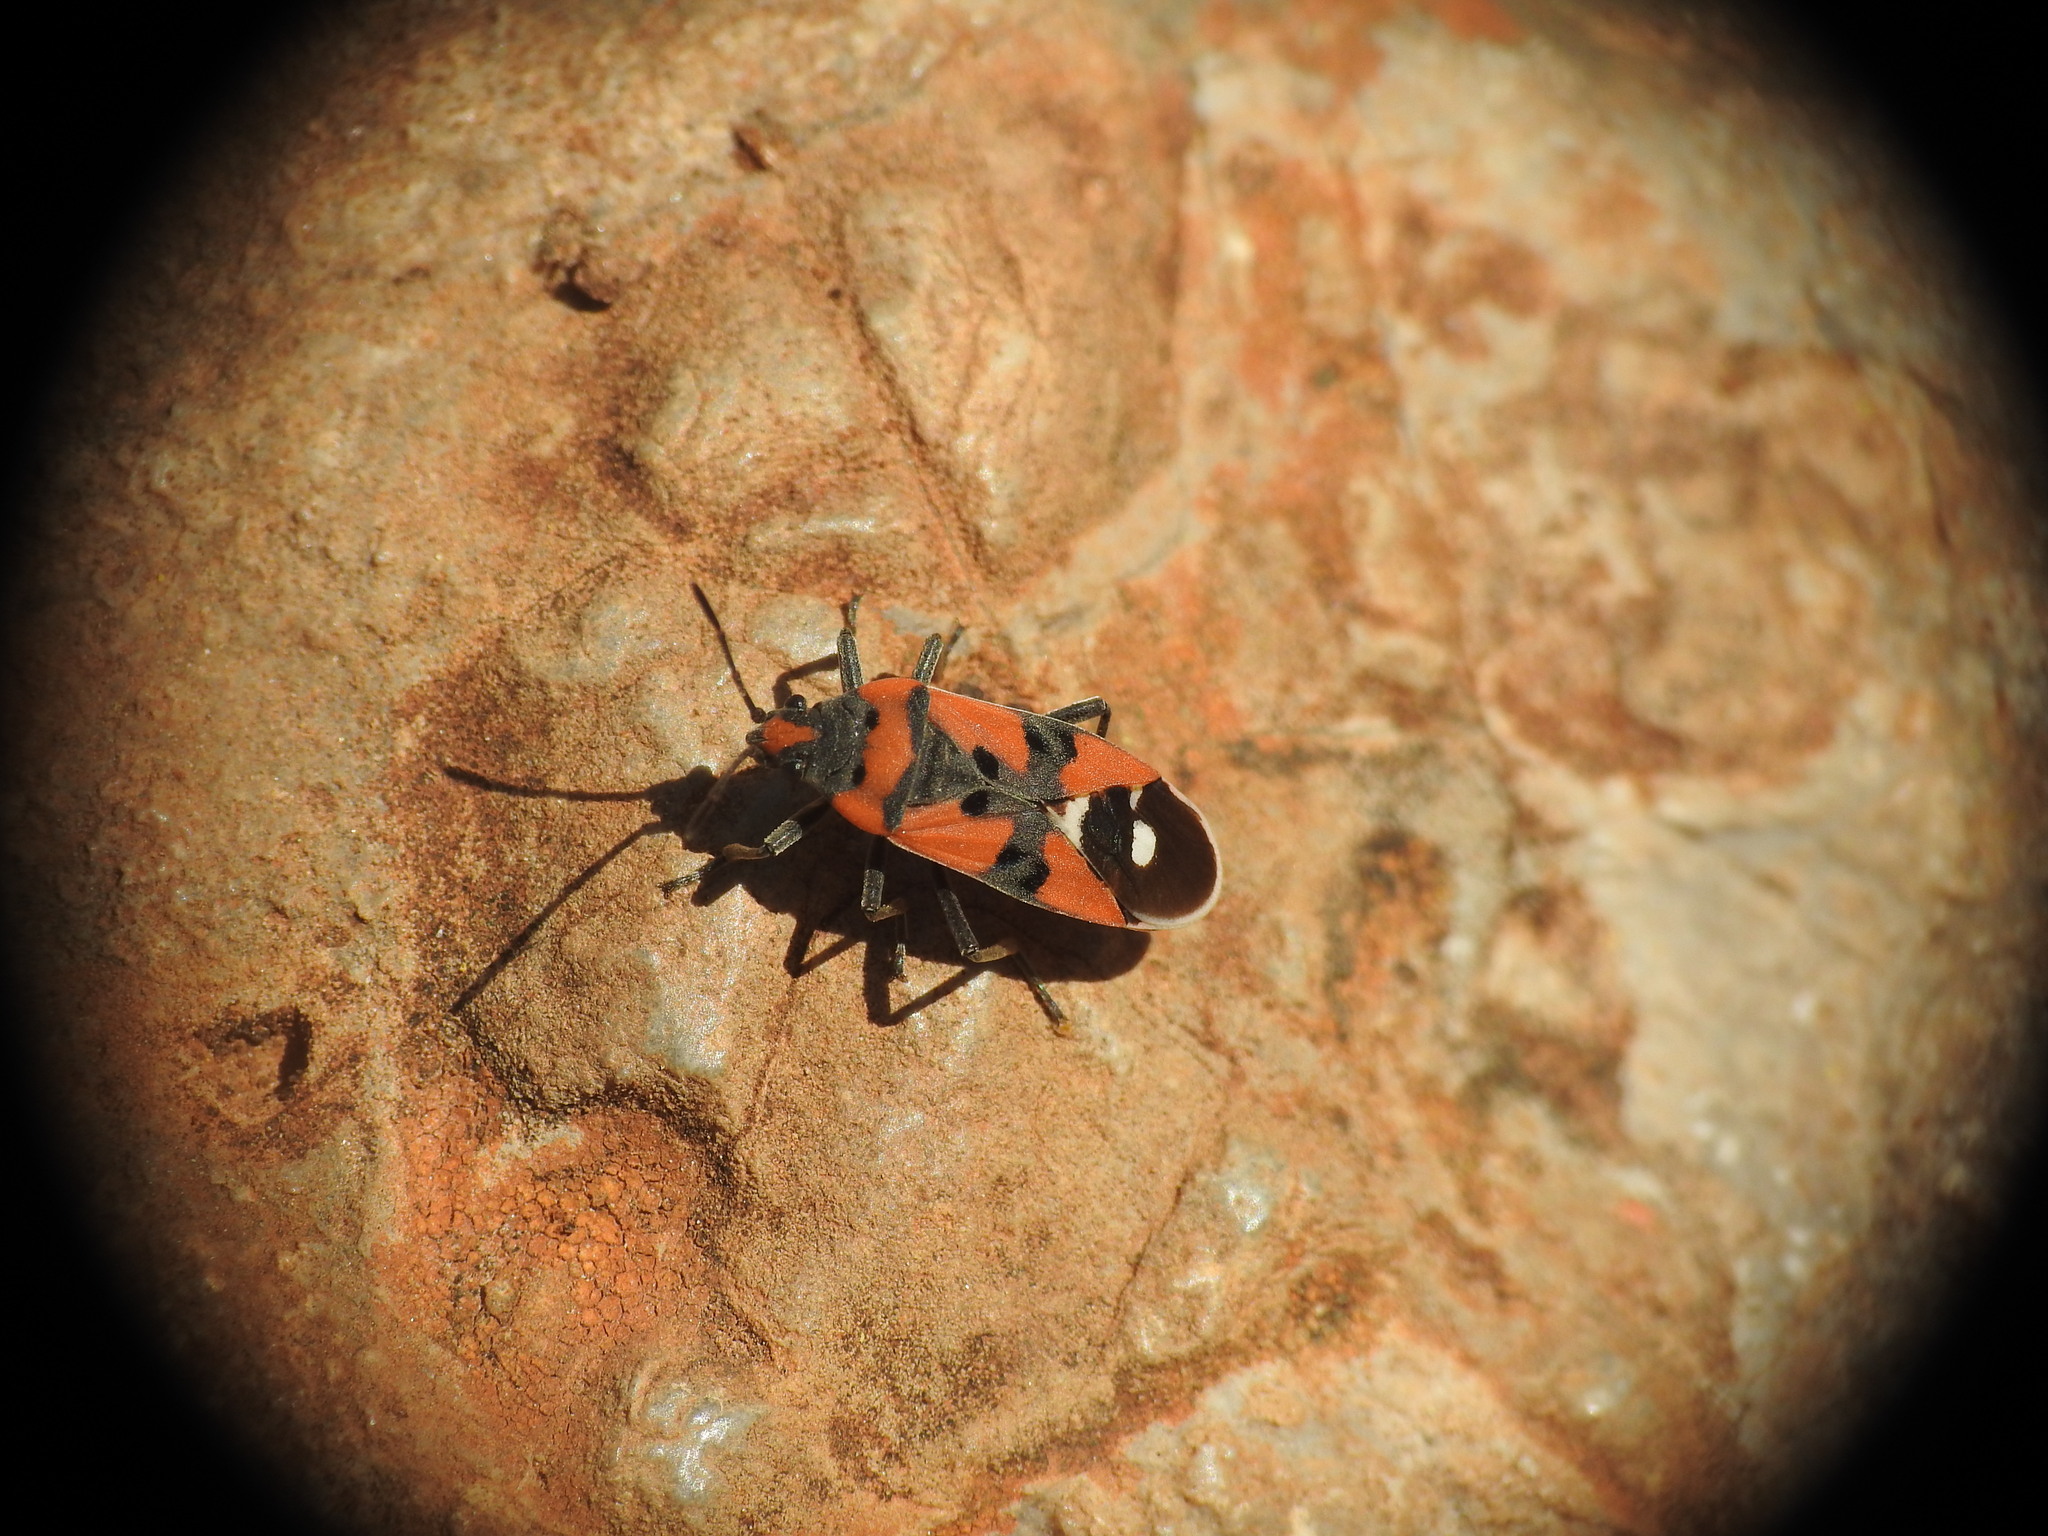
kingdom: Animalia
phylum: Arthropoda
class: Insecta
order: Hemiptera
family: Lygaeidae
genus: Lygaeus
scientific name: Lygaeus equestris
